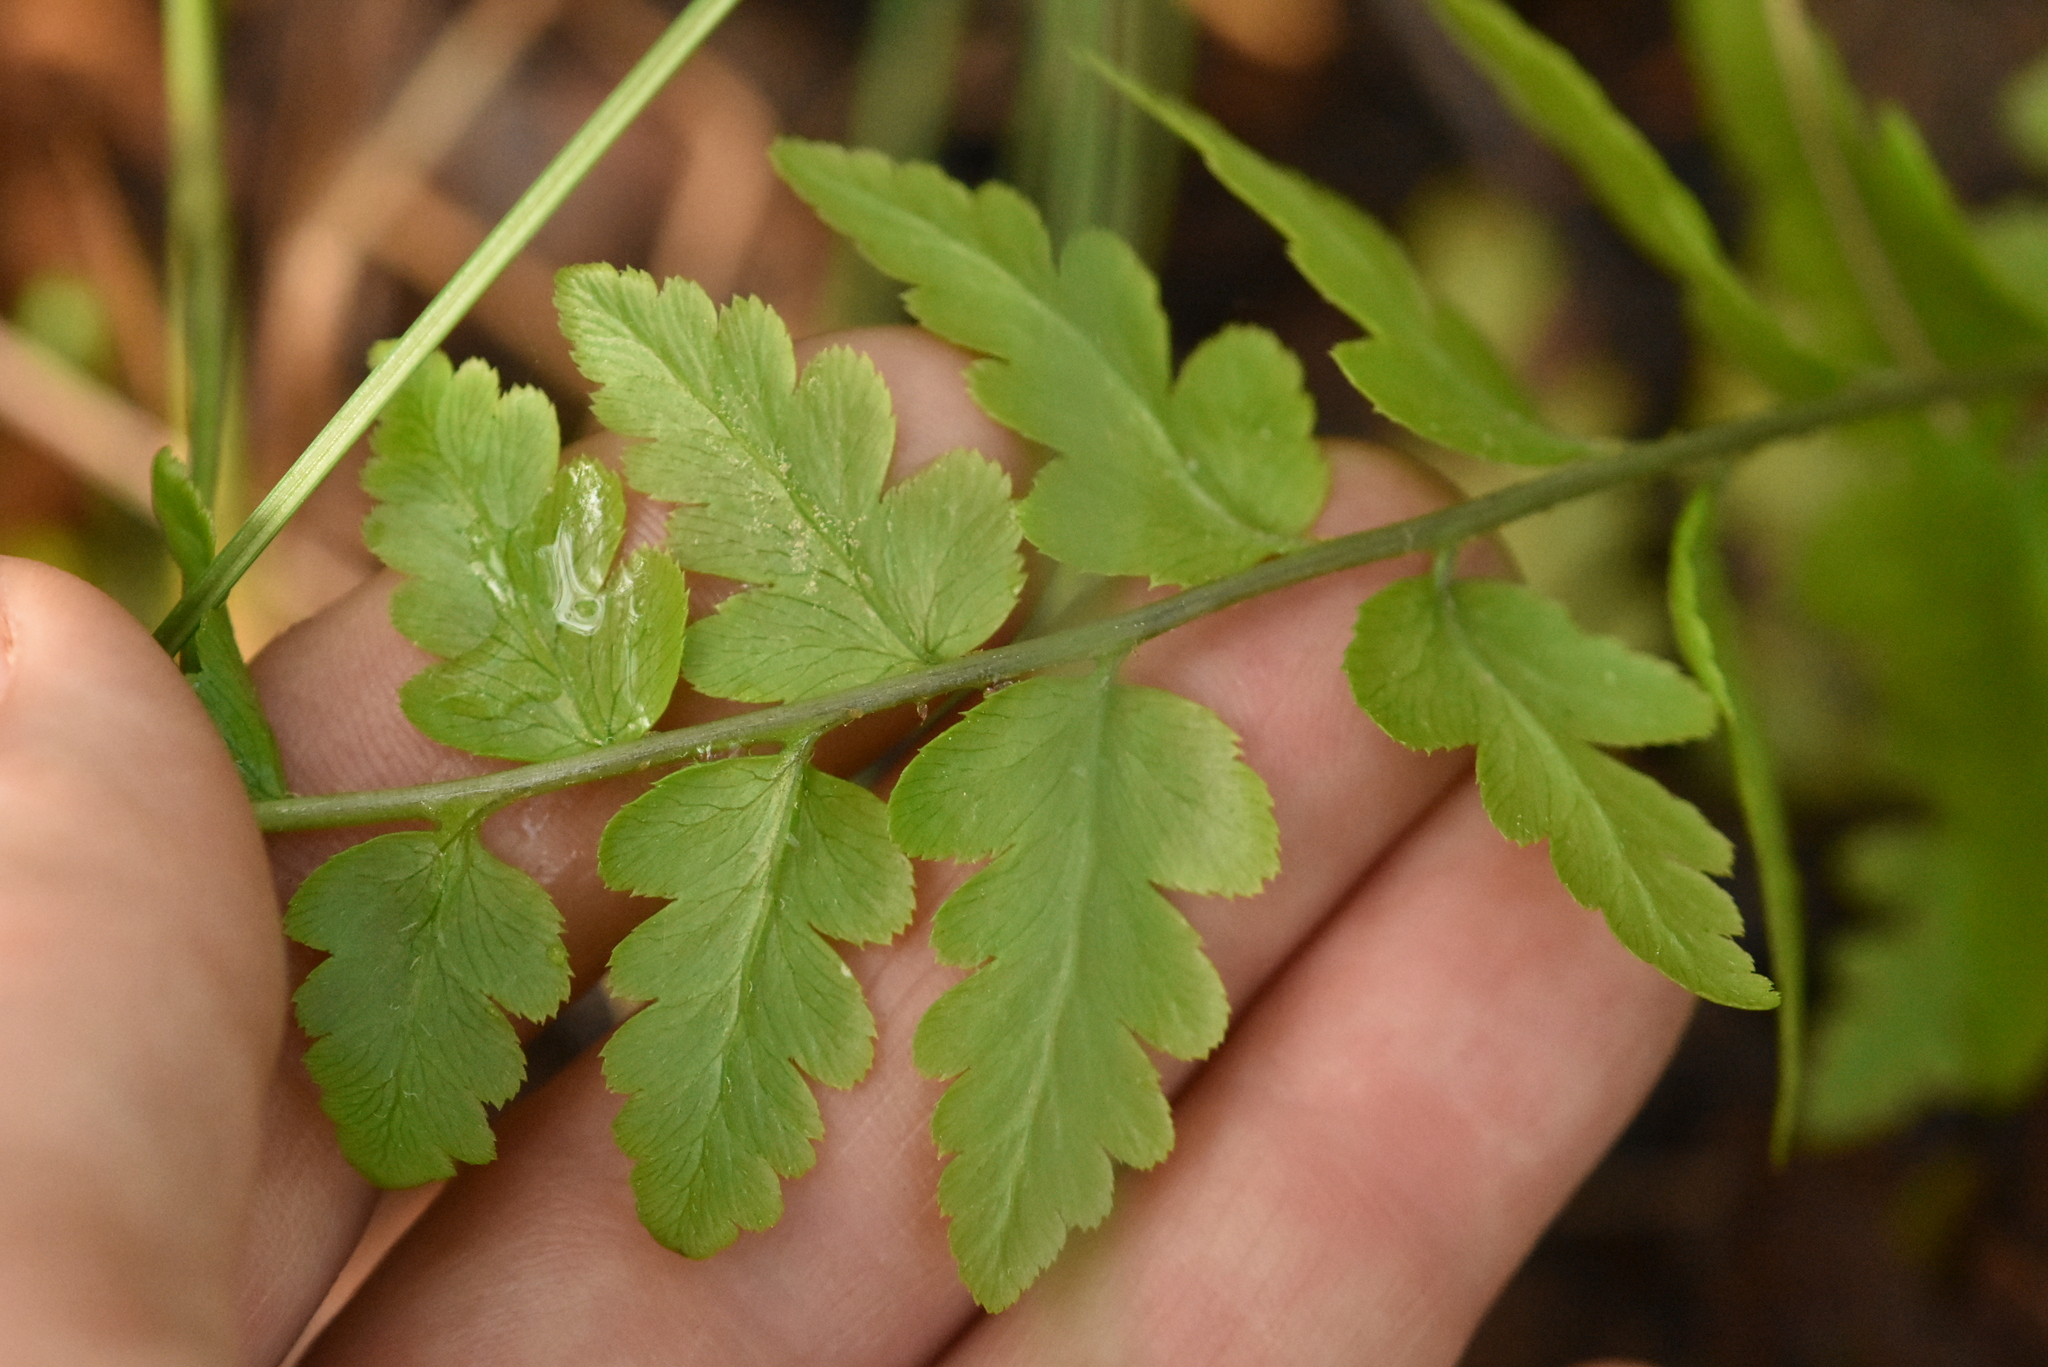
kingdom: Plantae
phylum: Tracheophyta
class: Polypodiopsida
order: Polypodiales
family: Dryopteridaceae
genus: Dryopteris
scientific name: Dryopteris cristata
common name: Crested wood fern
